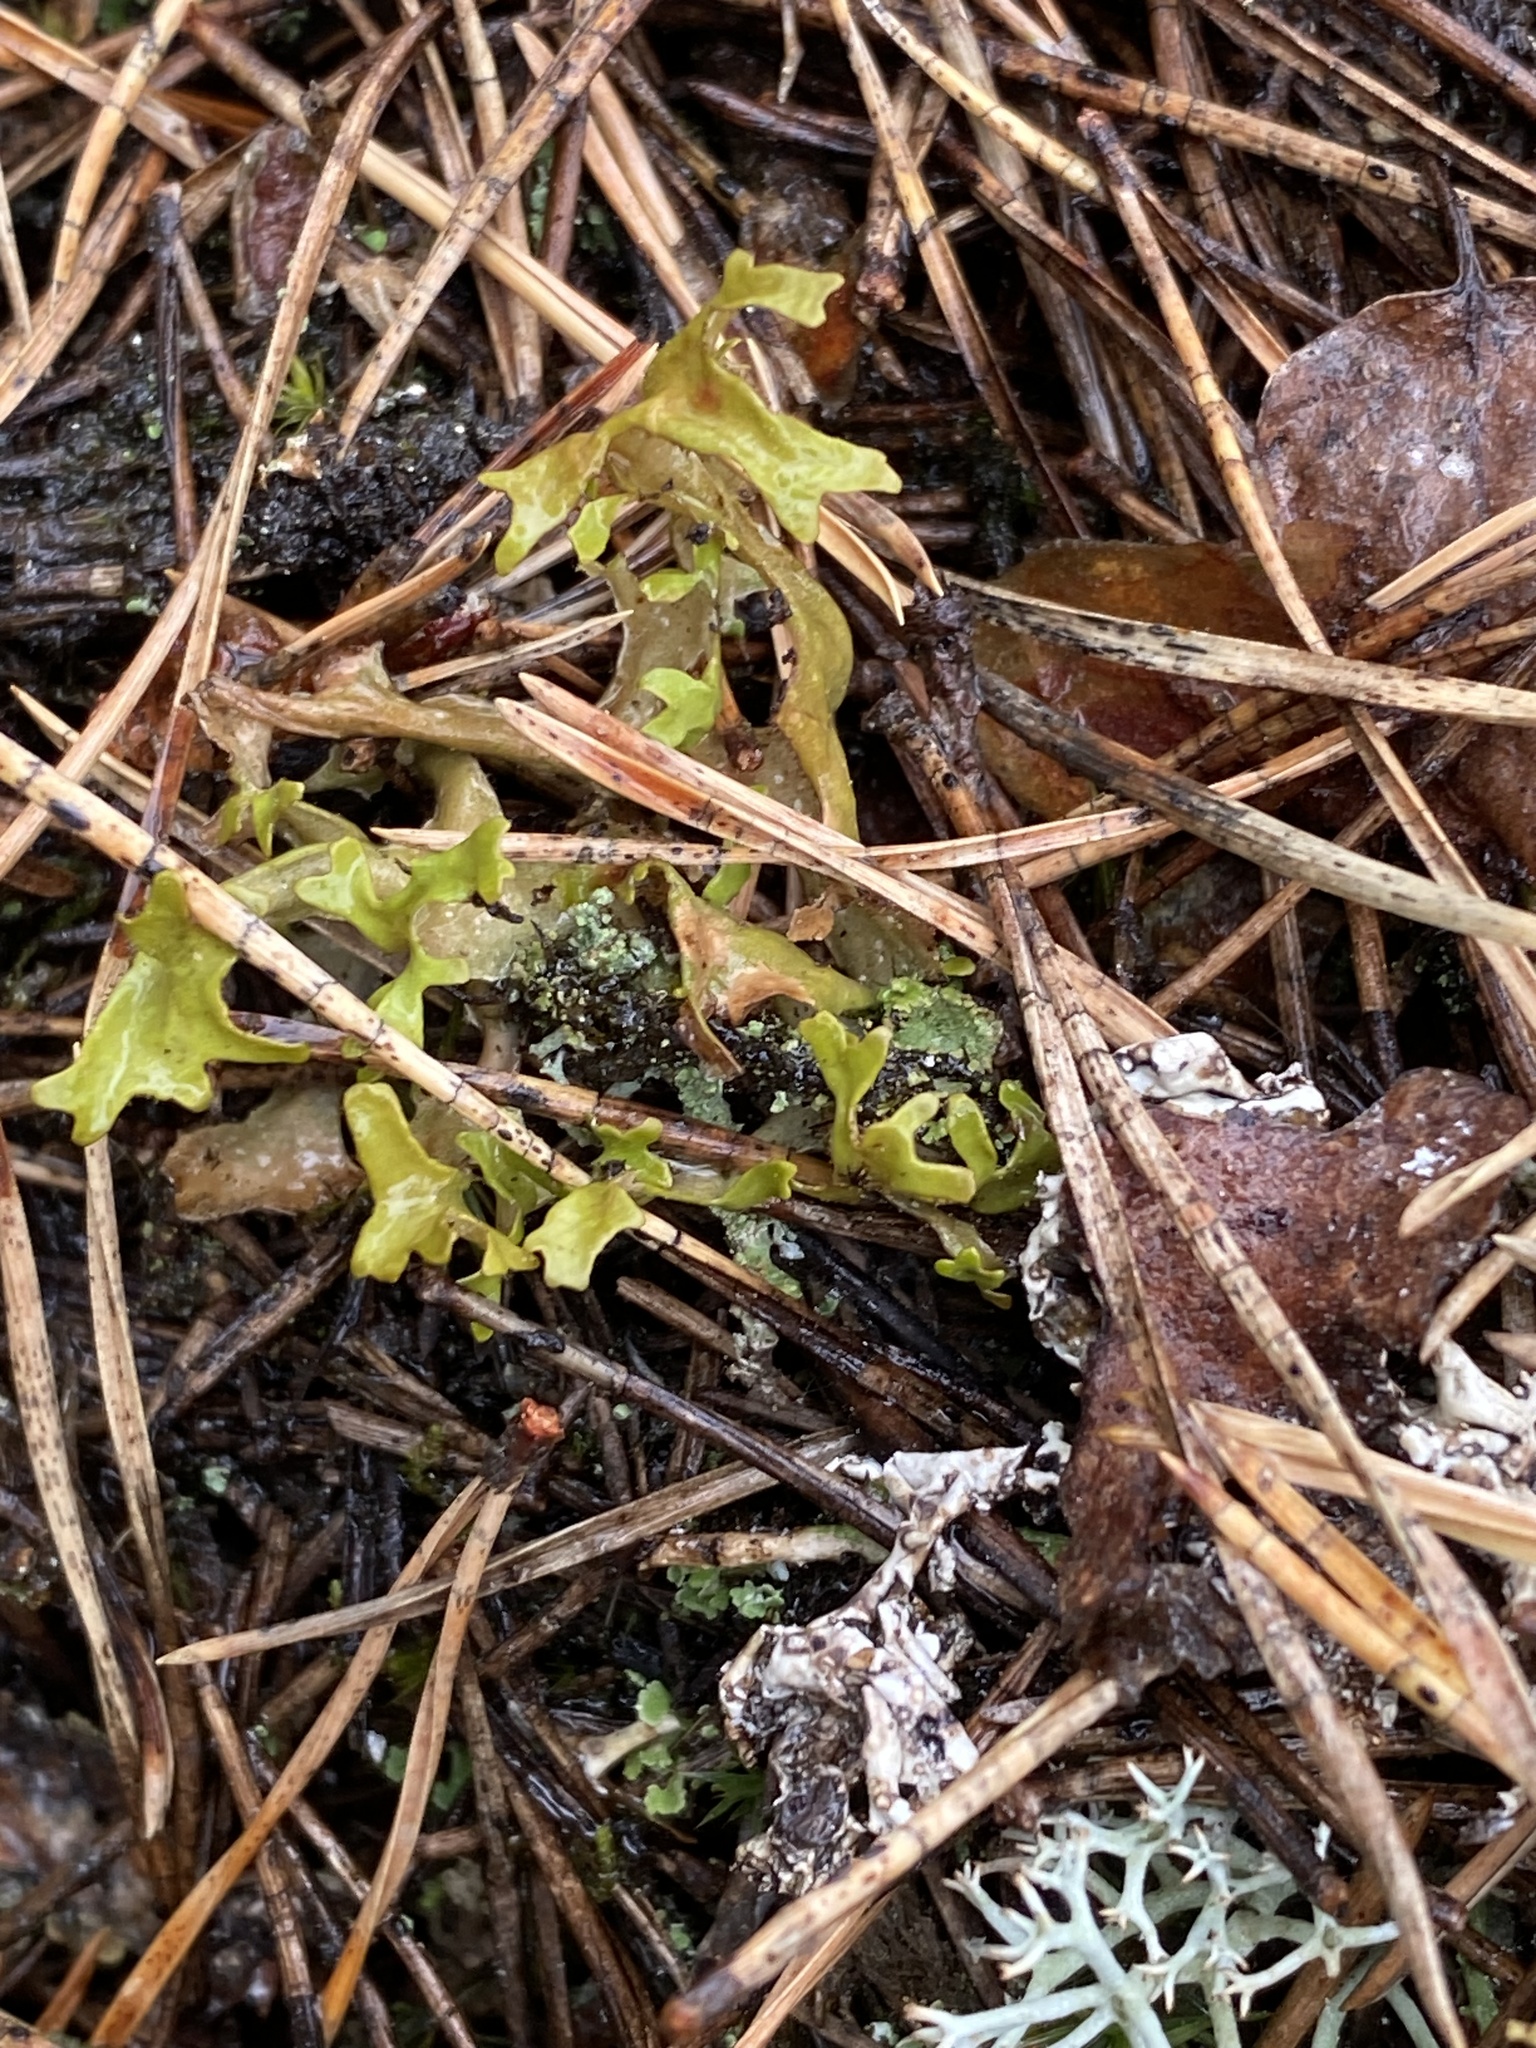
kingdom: Fungi
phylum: Ascomycota
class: Lecanoromycetes
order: Lecanorales
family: Parmeliaceae
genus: Cetraria
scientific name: Cetraria islandica
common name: Iceland lichen
